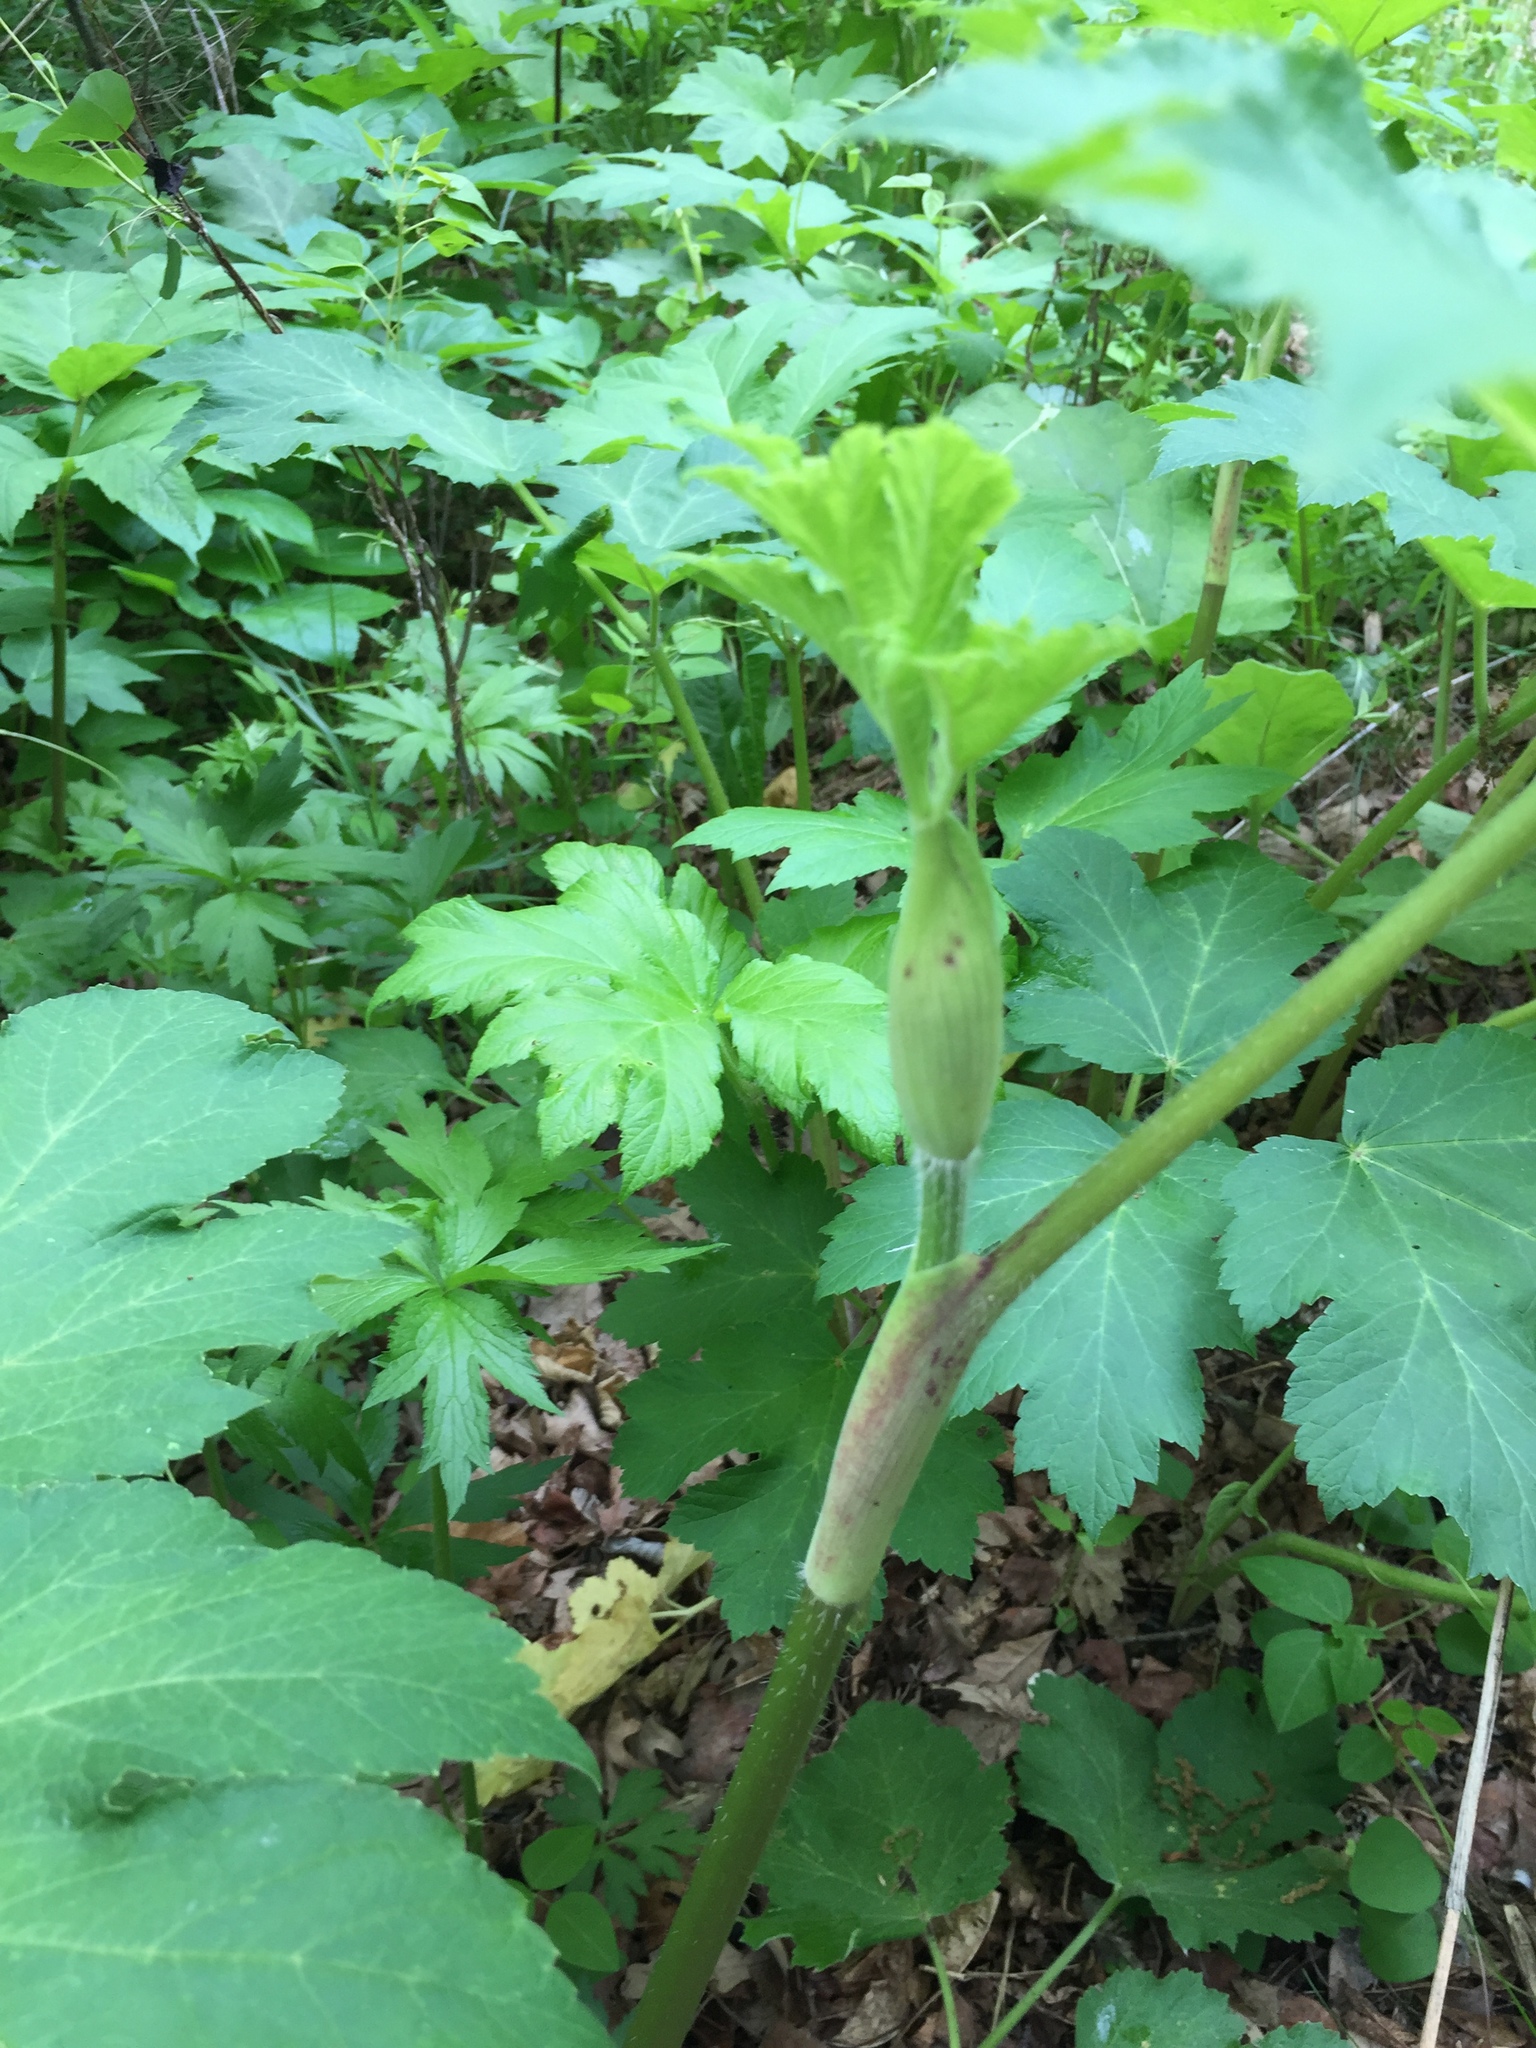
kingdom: Plantae
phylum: Tracheophyta
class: Magnoliopsida
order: Apiales
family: Apiaceae
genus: Heracleum
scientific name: Heracleum maximum
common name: American cow parsnip
